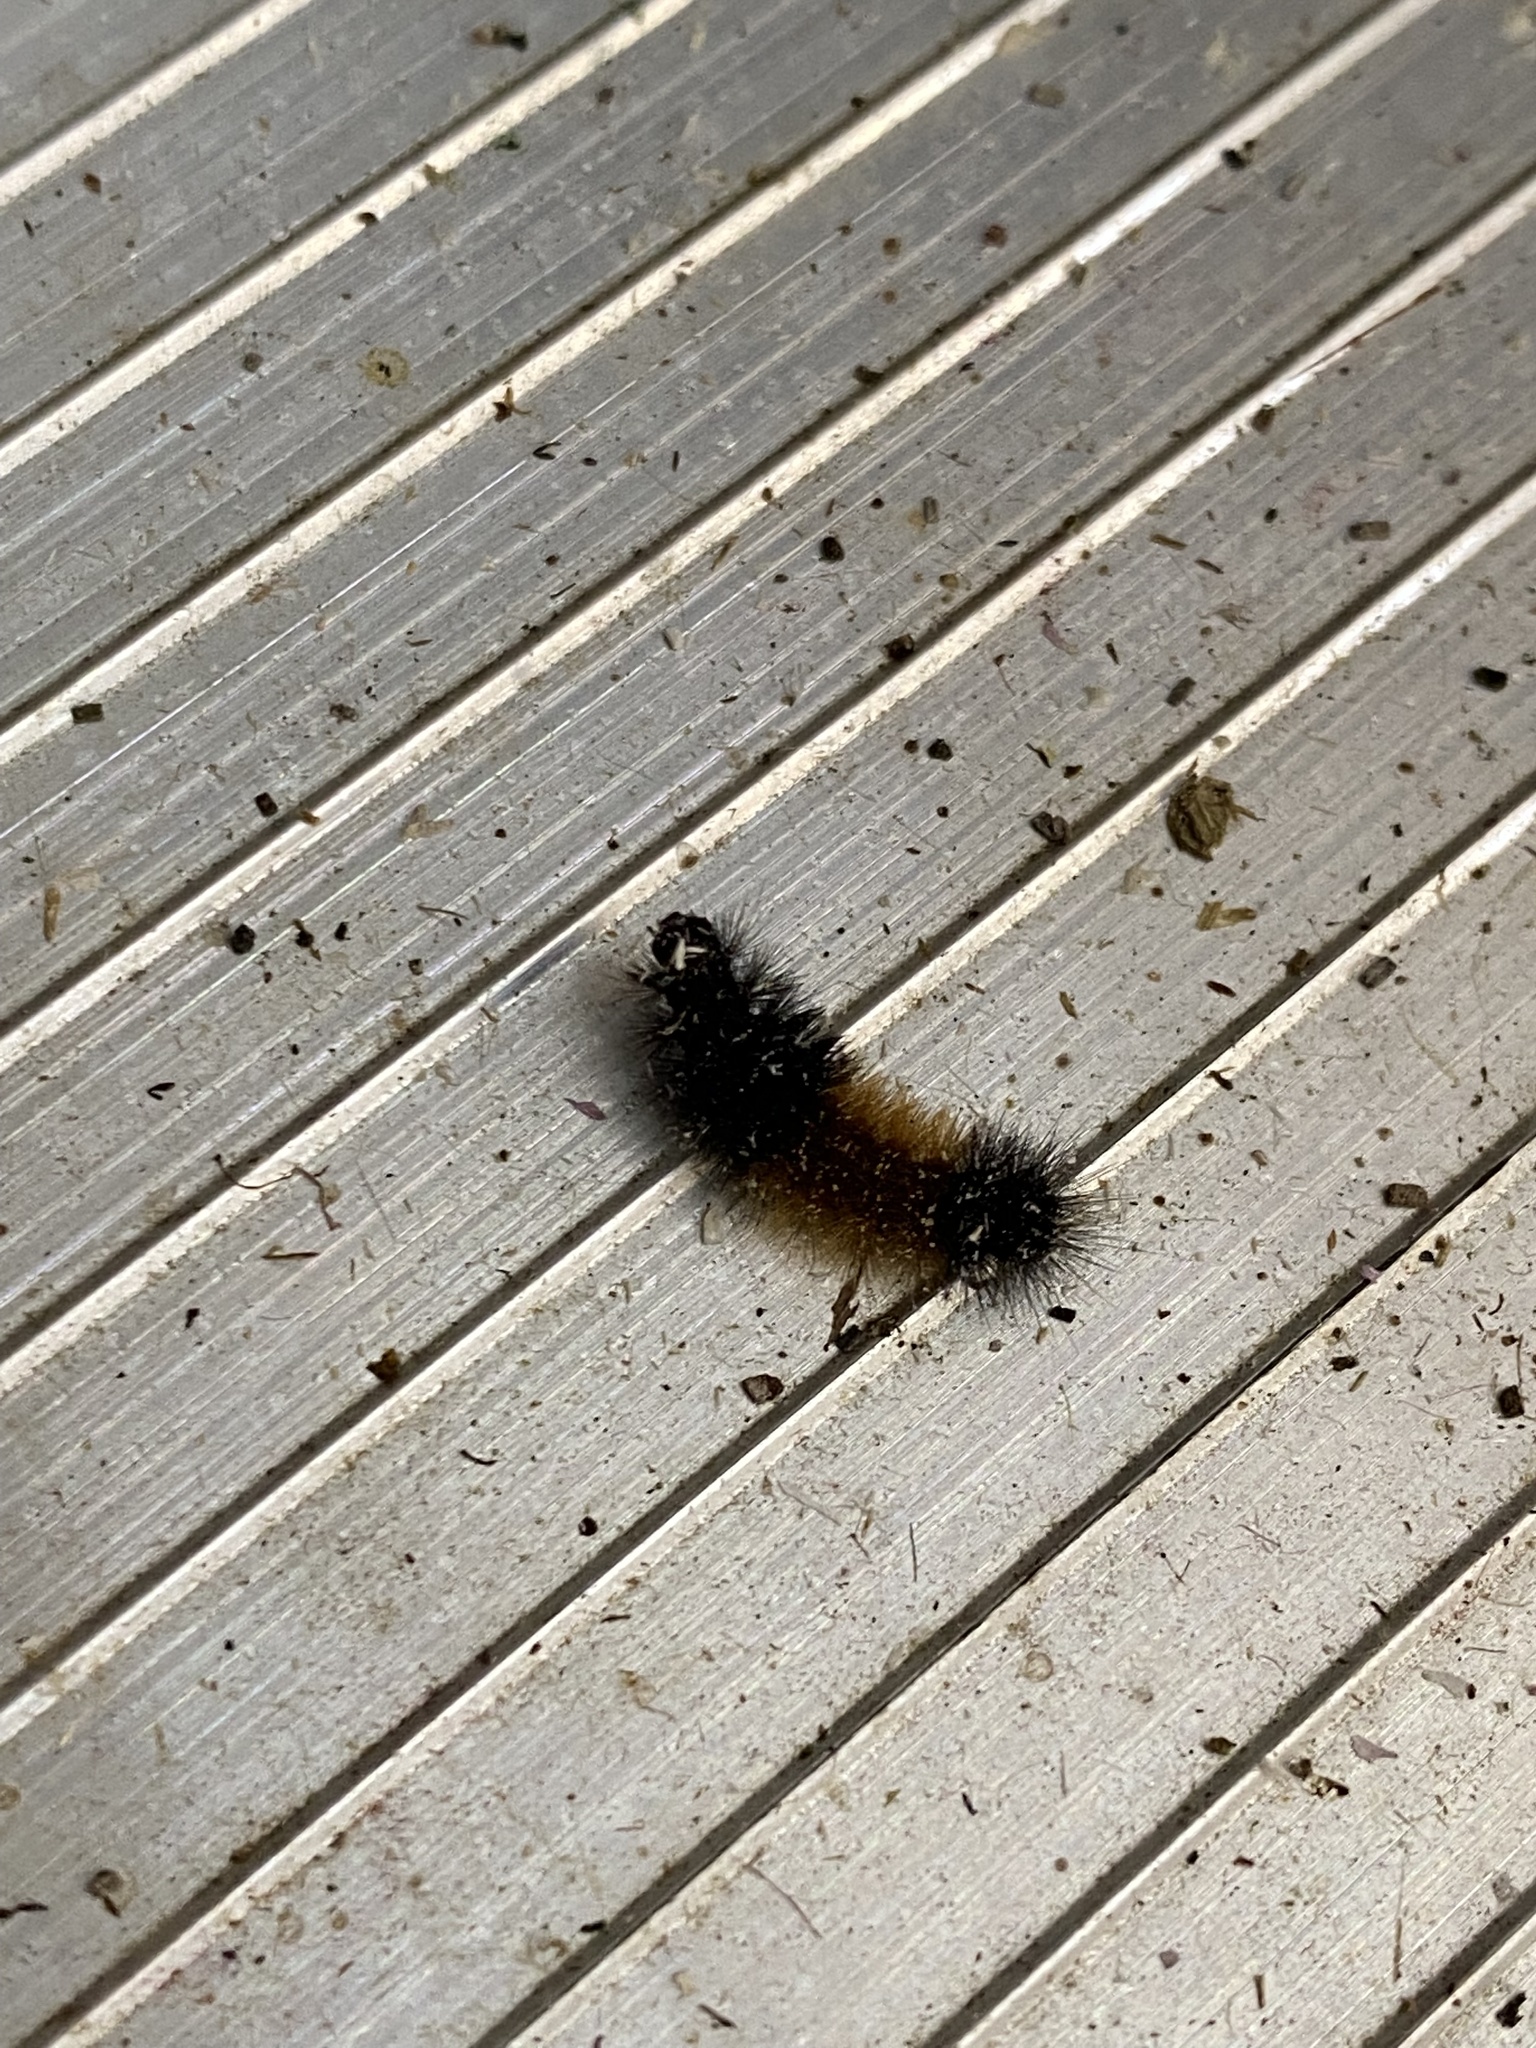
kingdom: Animalia
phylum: Arthropoda
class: Insecta
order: Lepidoptera
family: Erebidae
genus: Pyrrharctia
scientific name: Pyrrharctia isabella
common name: Isabella tiger moth
